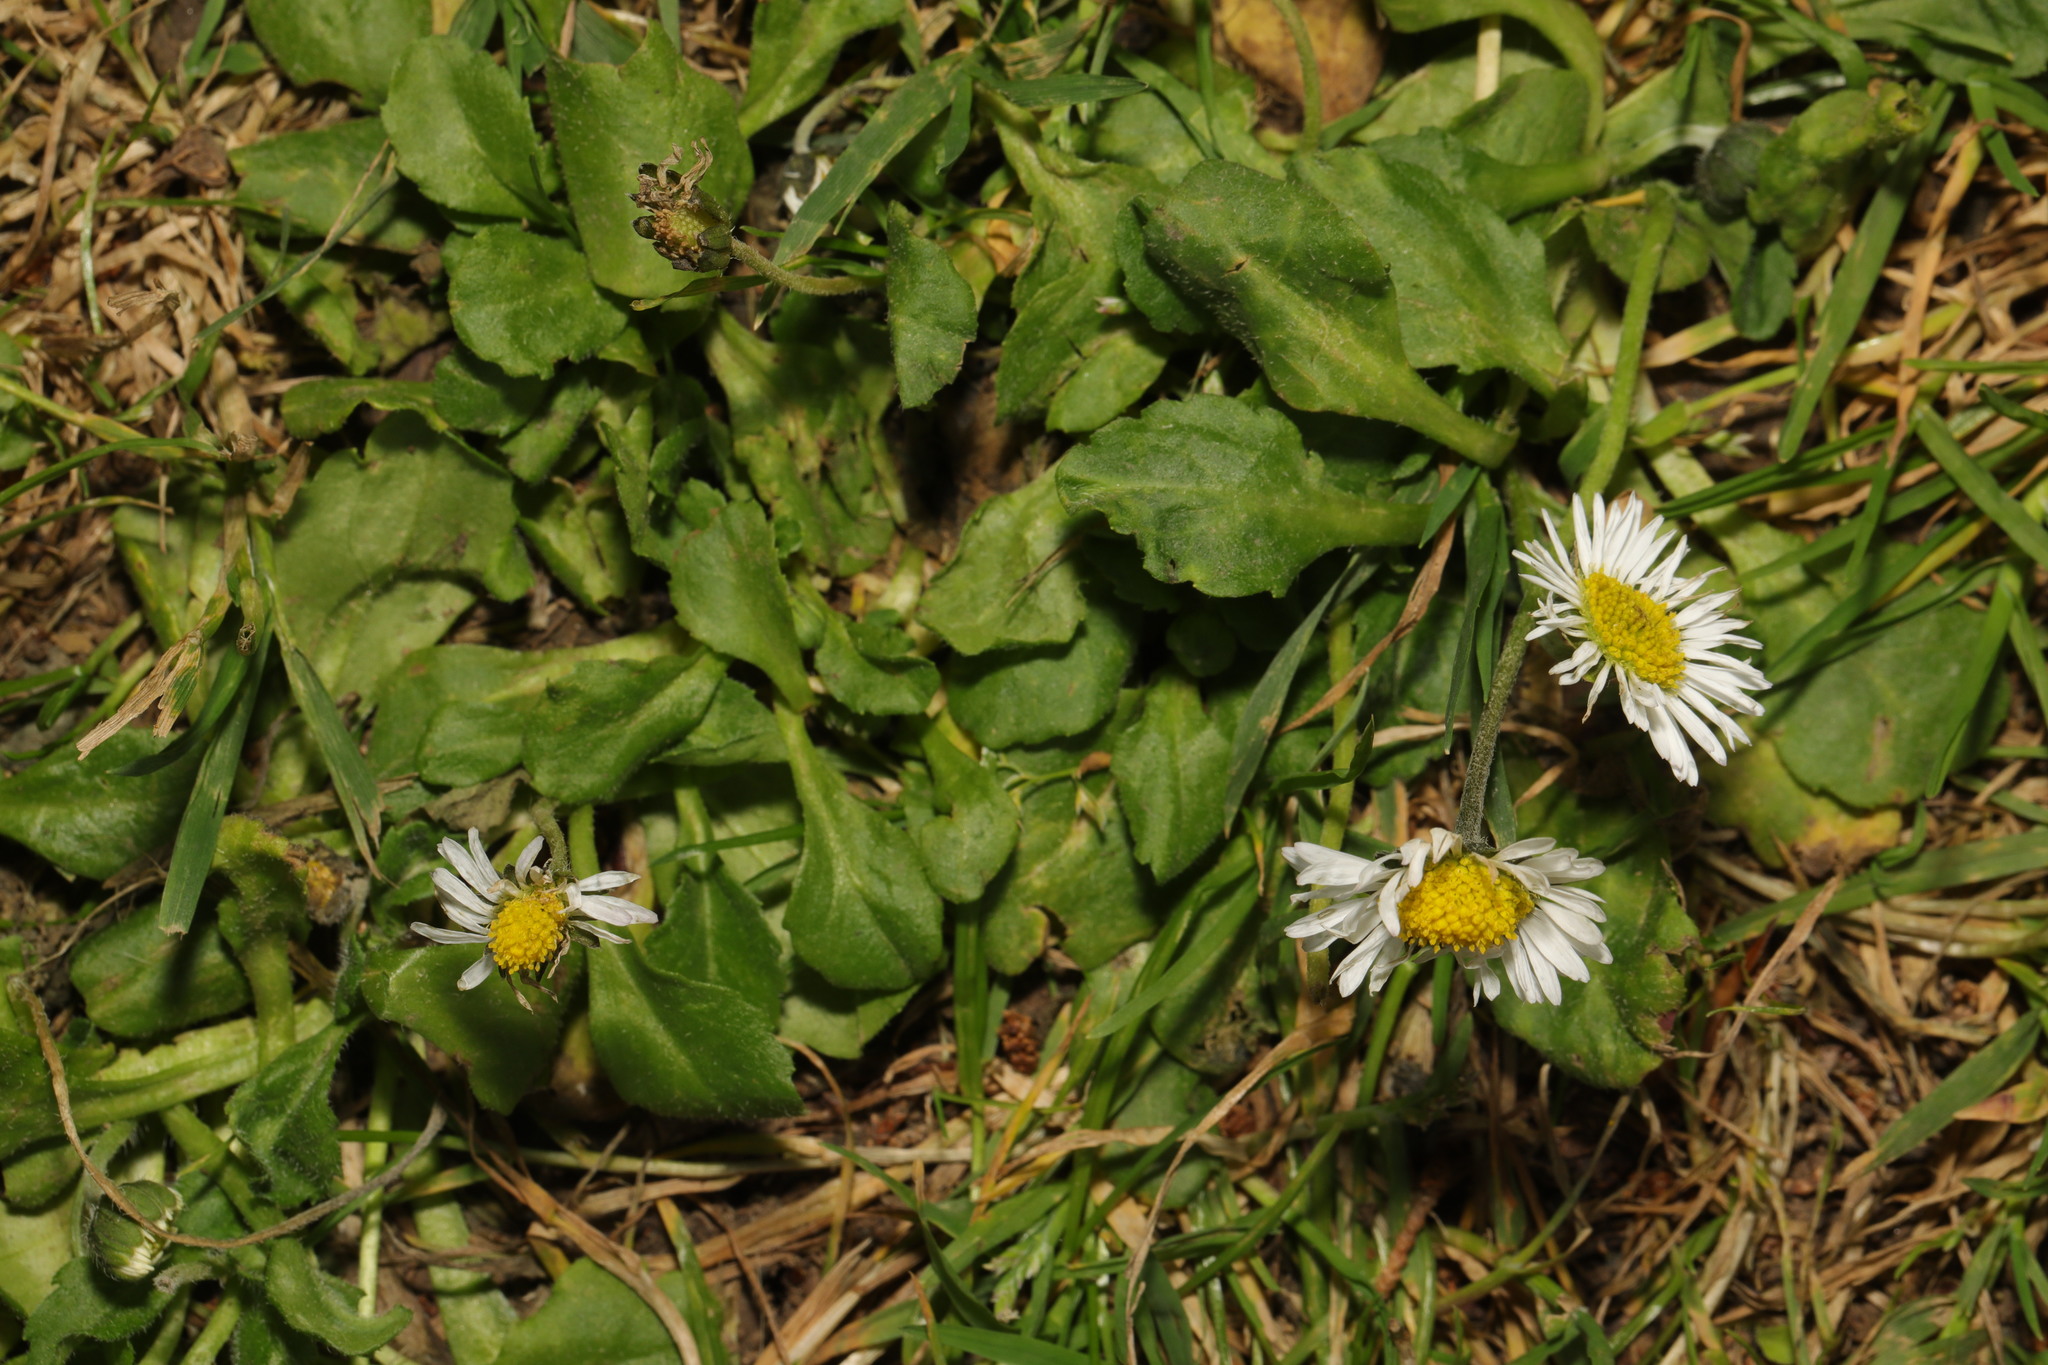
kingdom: Plantae
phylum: Tracheophyta
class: Magnoliopsida
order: Asterales
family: Asteraceae
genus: Bellis
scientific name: Bellis perennis
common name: Lawndaisy
